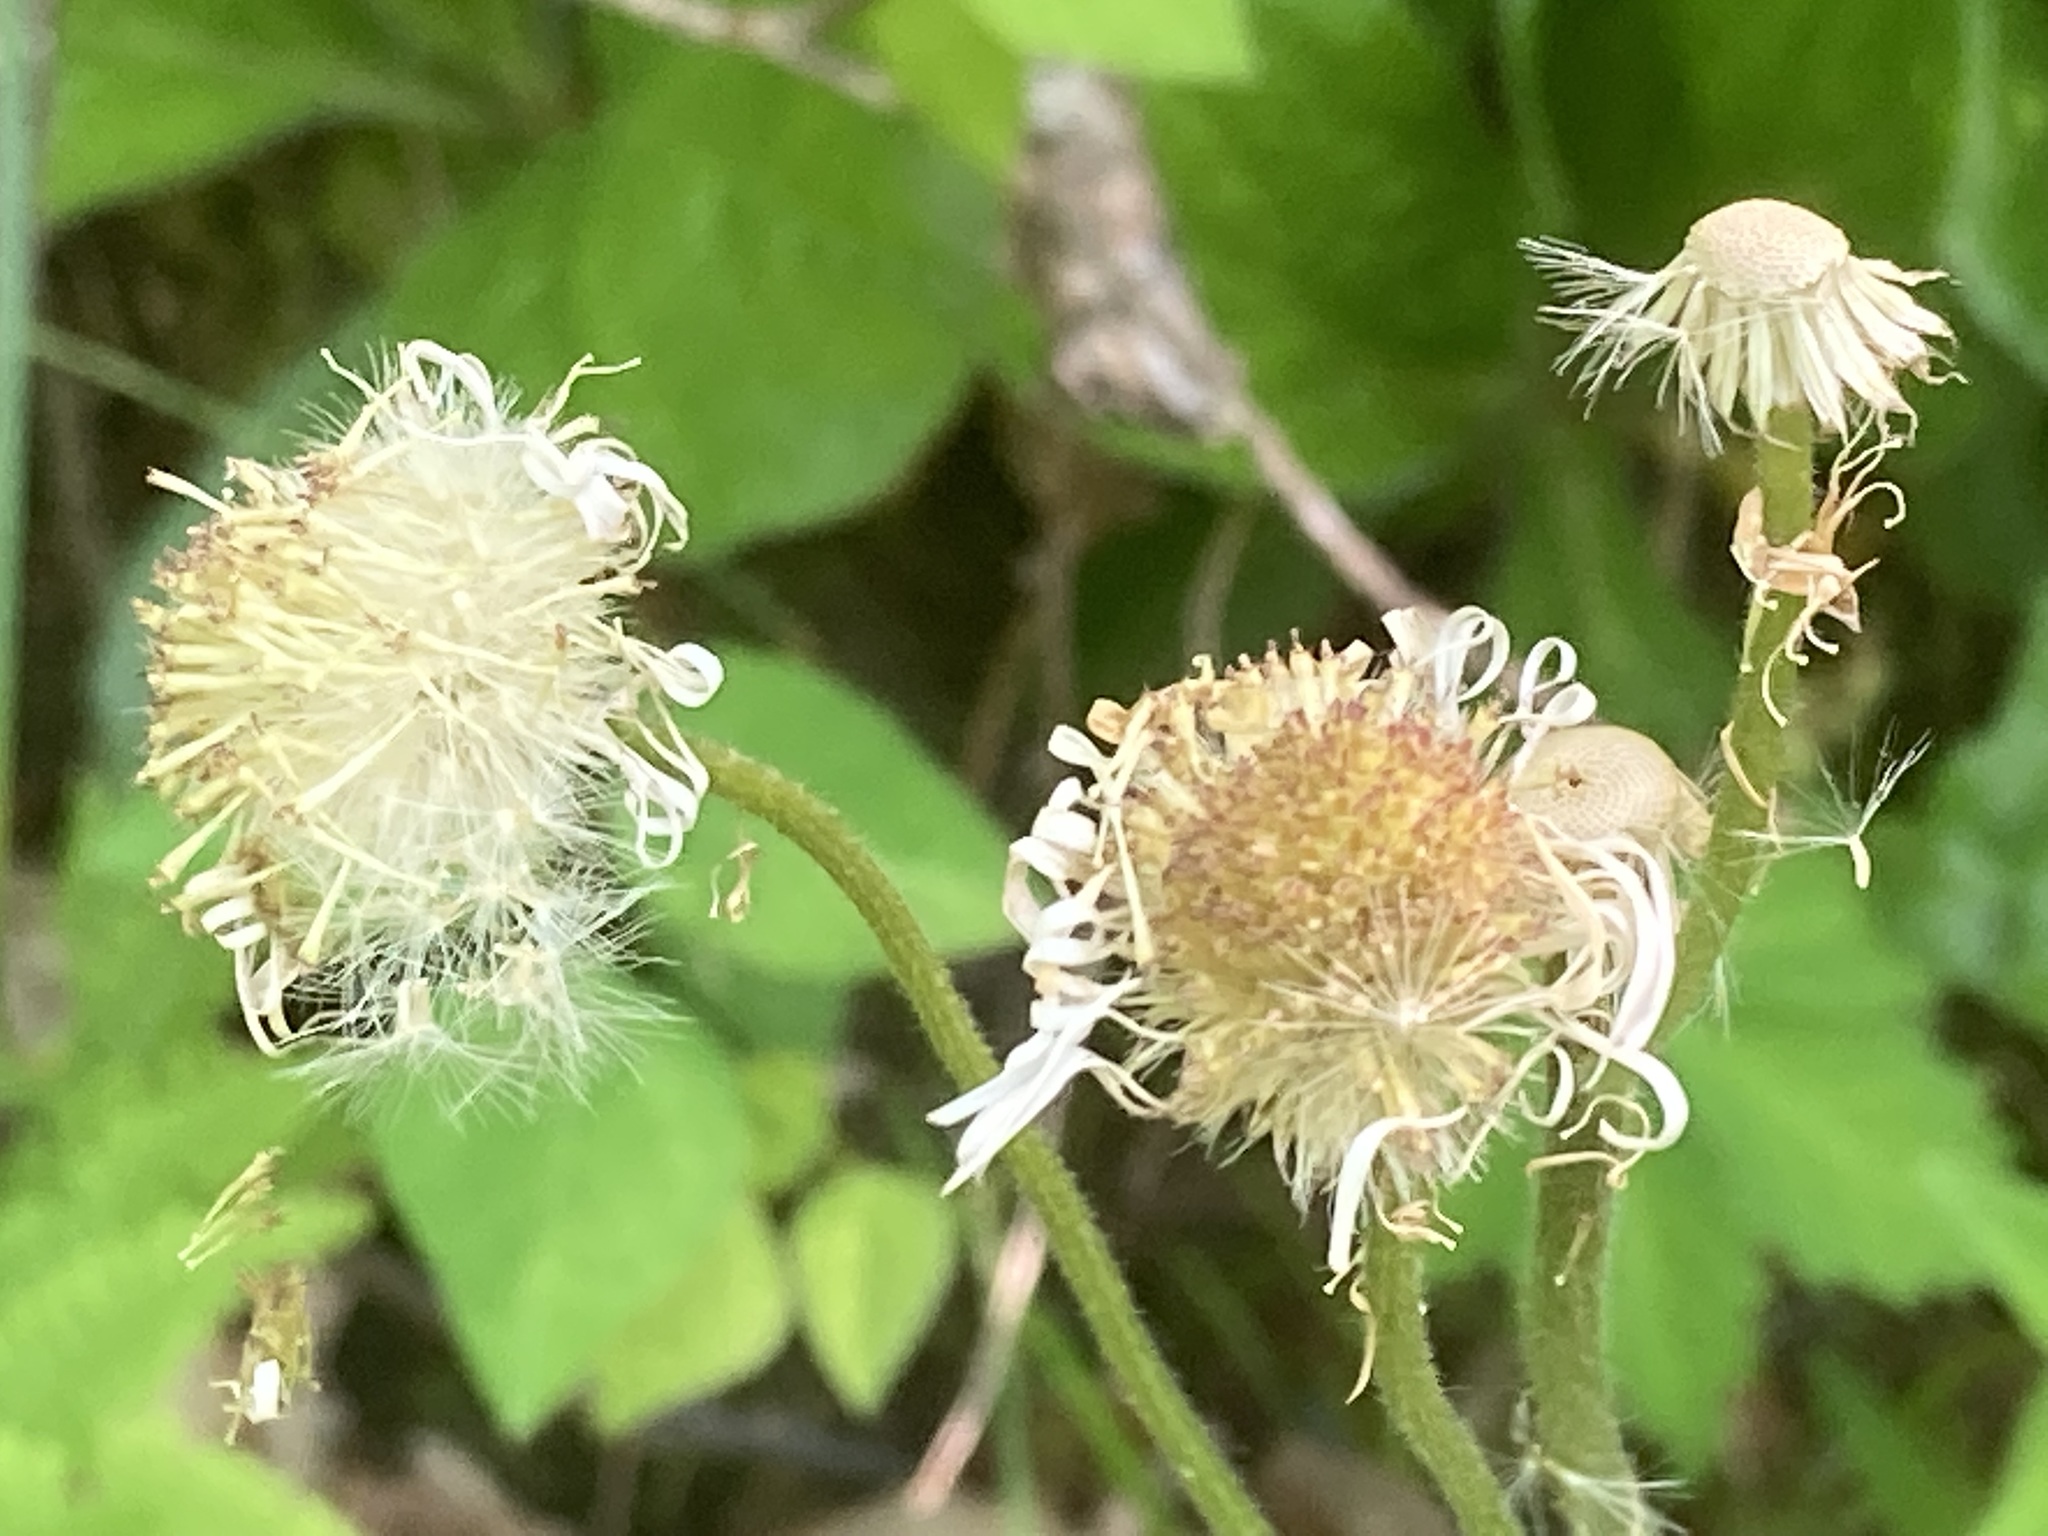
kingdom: Plantae
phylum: Tracheophyta
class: Magnoliopsida
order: Asterales
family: Asteraceae
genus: Erigeron
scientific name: Erigeron pulchellus
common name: Hairy fleabane
